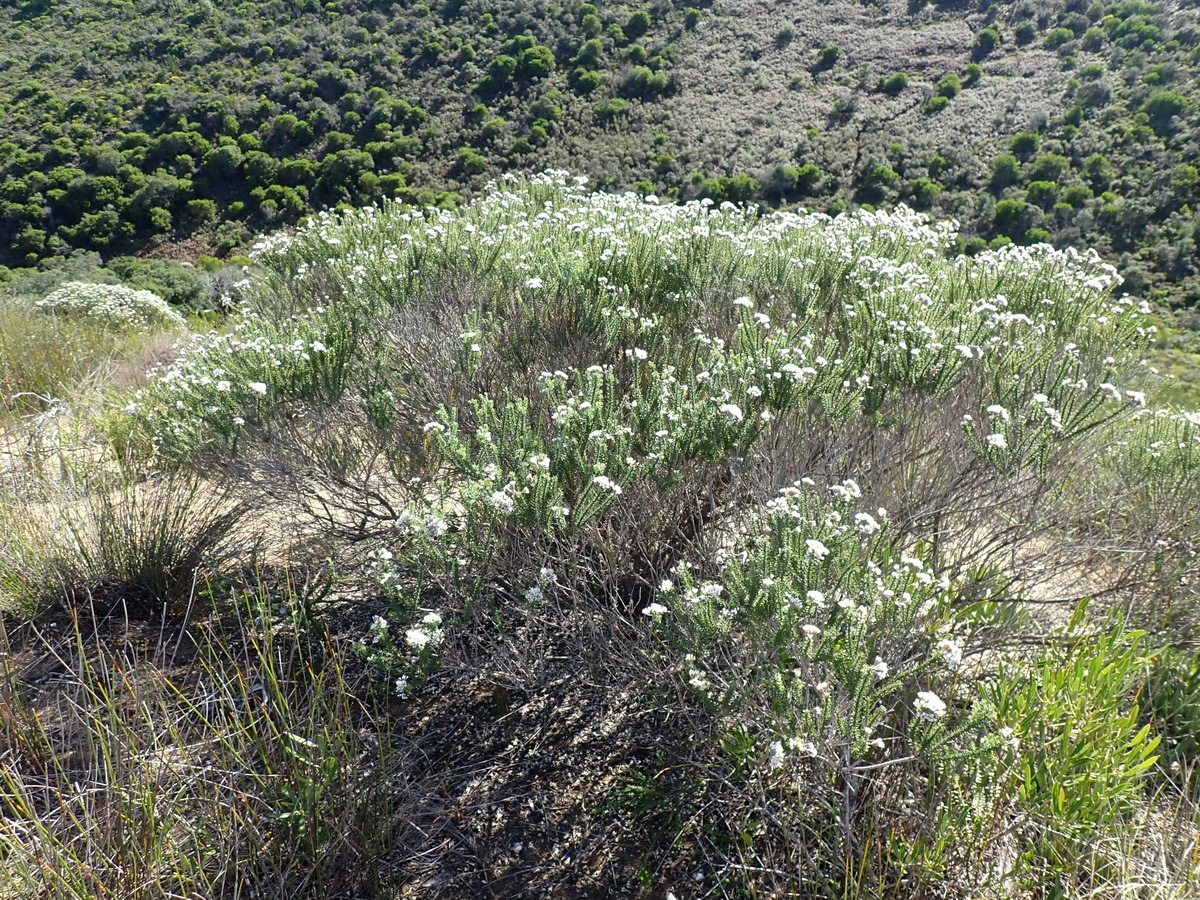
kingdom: Plantae
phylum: Tracheophyta
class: Magnoliopsida
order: Asterales
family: Asteraceae
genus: Metalasia
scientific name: Metalasia muricata
